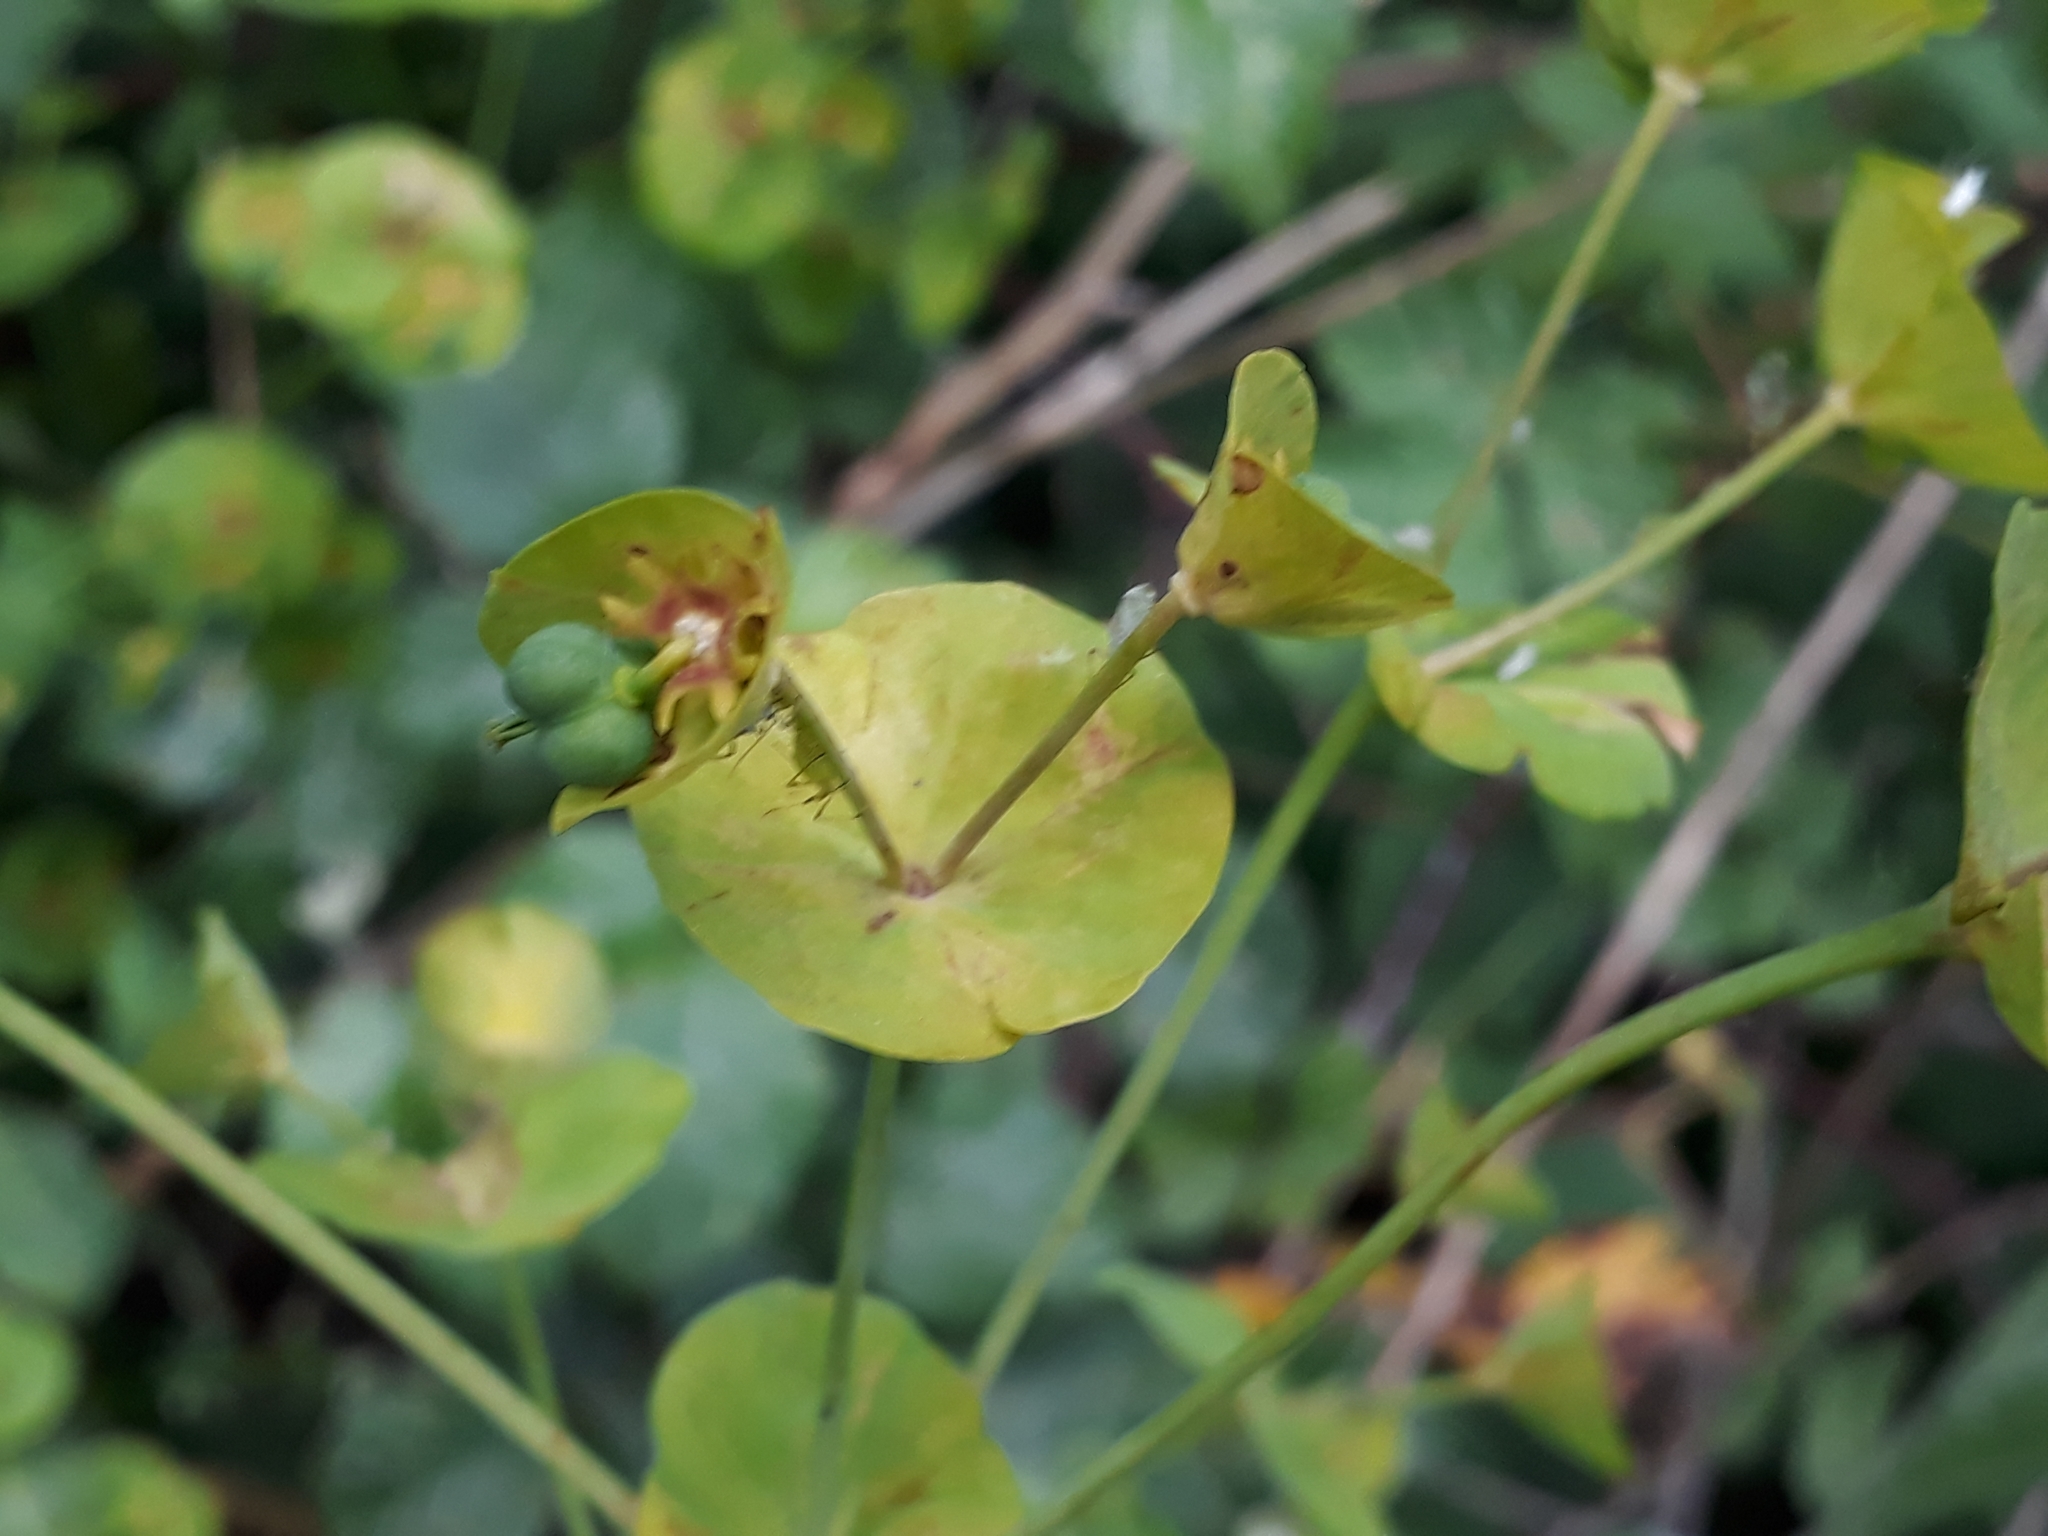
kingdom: Plantae
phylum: Tracheophyta
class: Magnoliopsida
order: Malpighiales
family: Euphorbiaceae
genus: Euphorbia
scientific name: Euphorbia amygdaloides
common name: Wood spurge
